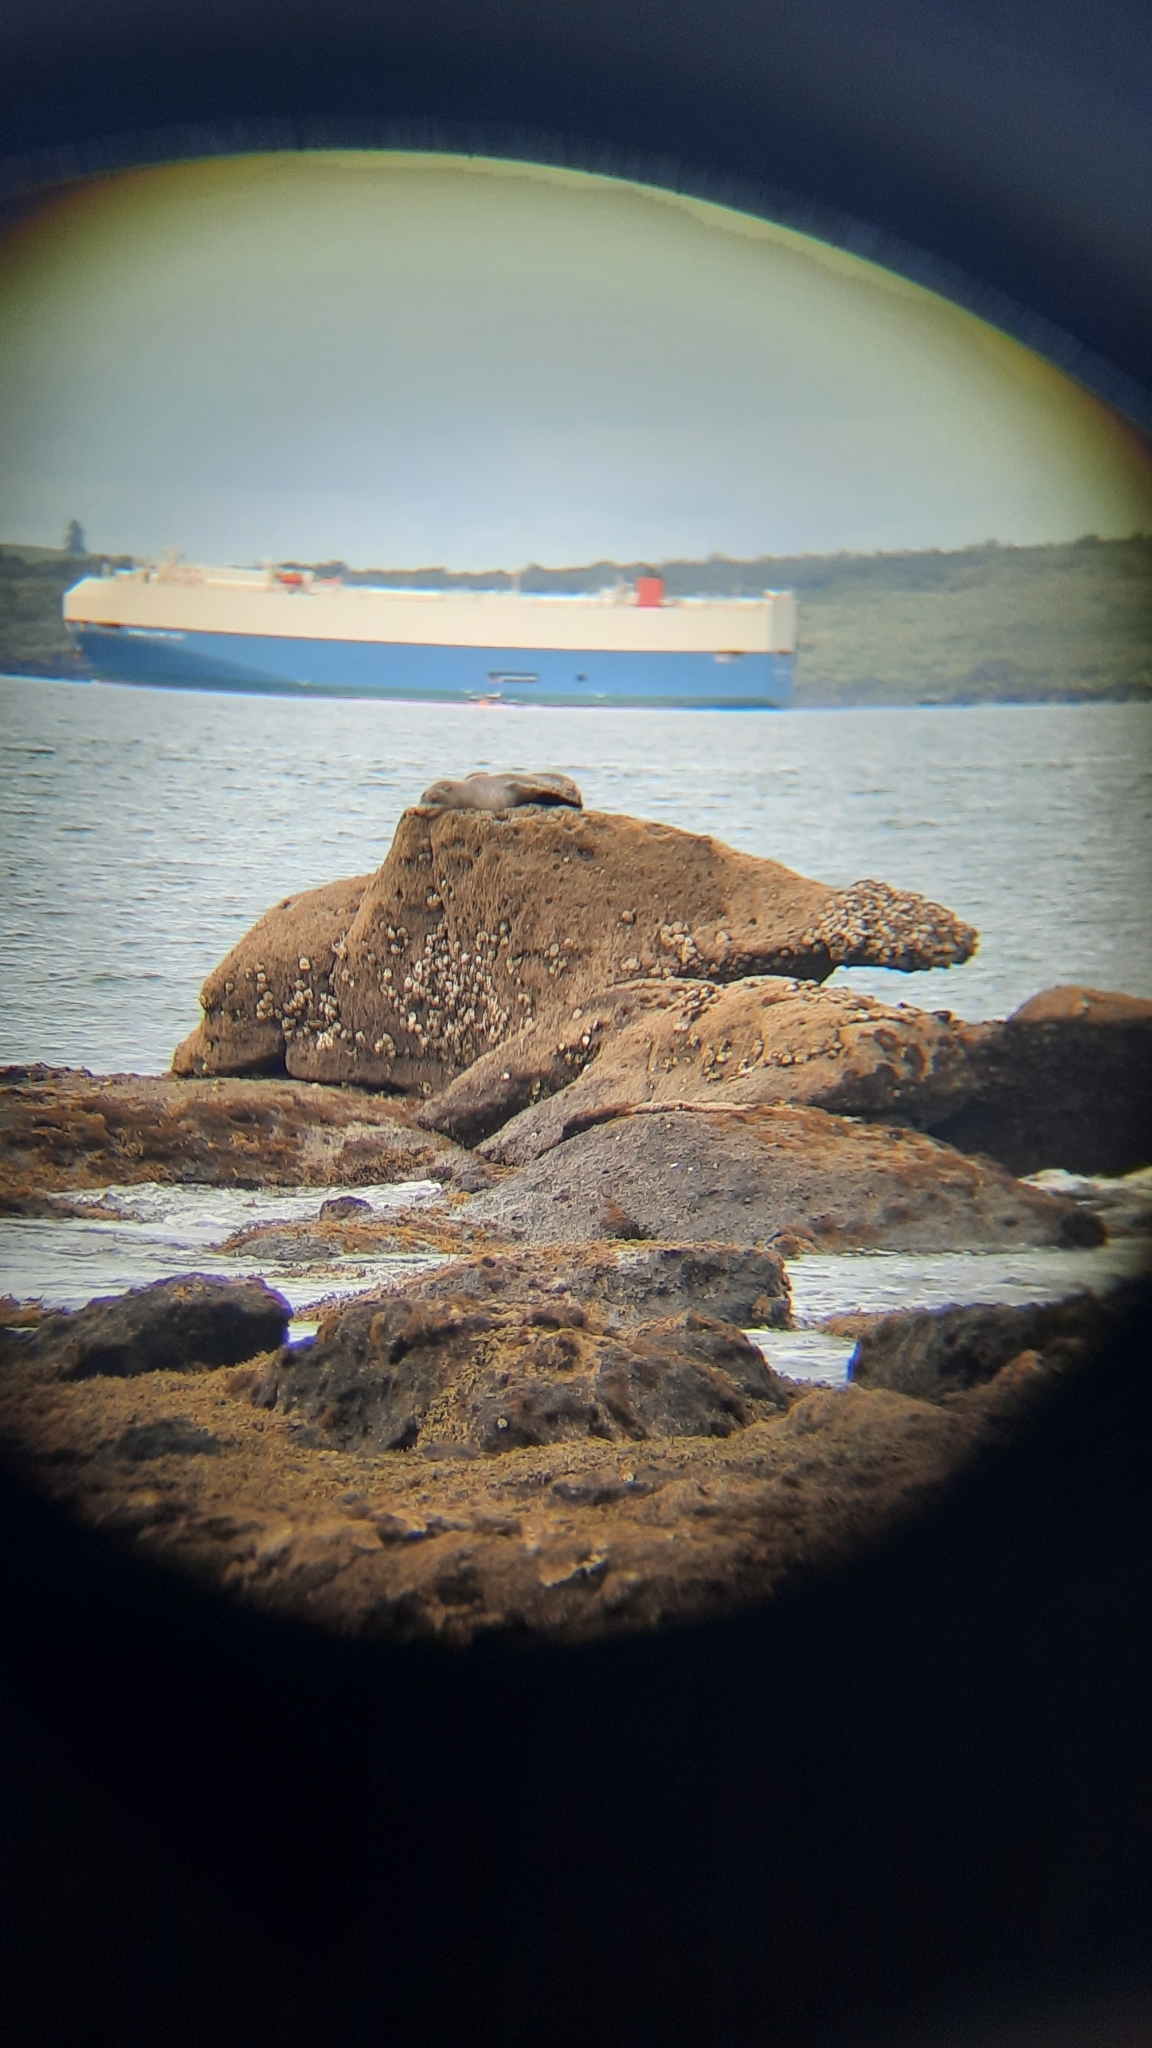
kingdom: Animalia
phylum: Chordata
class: Mammalia
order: Carnivora
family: Otariidae
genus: Arctocephalus
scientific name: Arctocephalus forsteri
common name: New zealand fur seal
